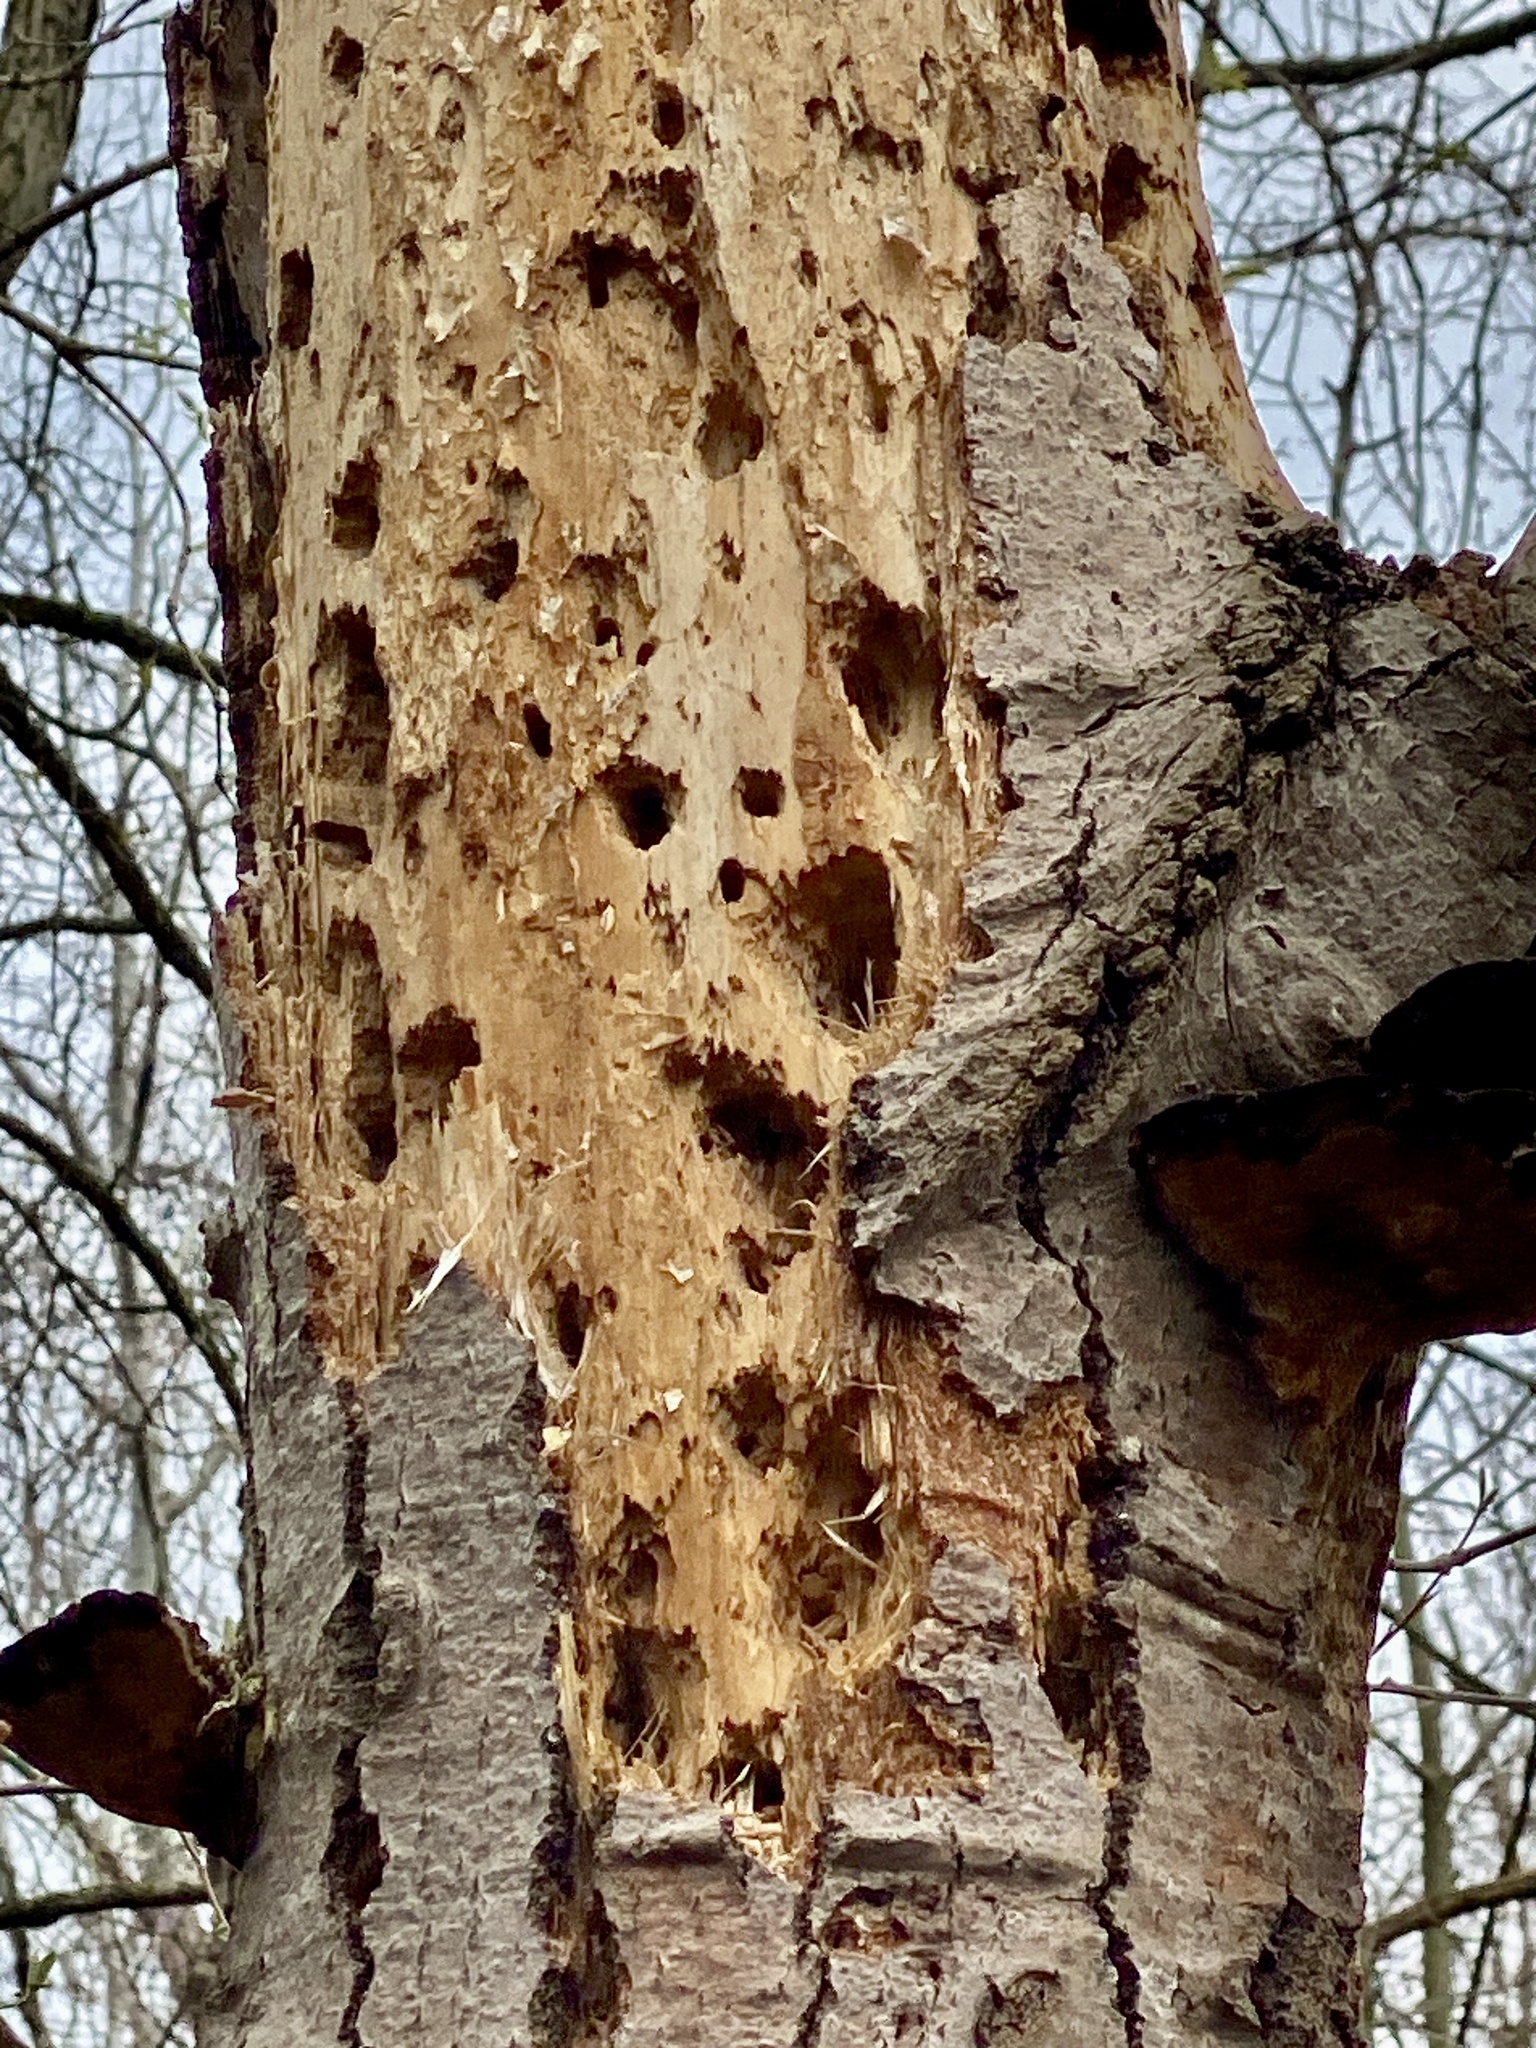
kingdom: Animalia
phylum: Chordata
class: Aves
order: Piciformes
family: Picidae
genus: Dryocopus
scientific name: Dryocopus pileatus
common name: Pileated woodpecker
